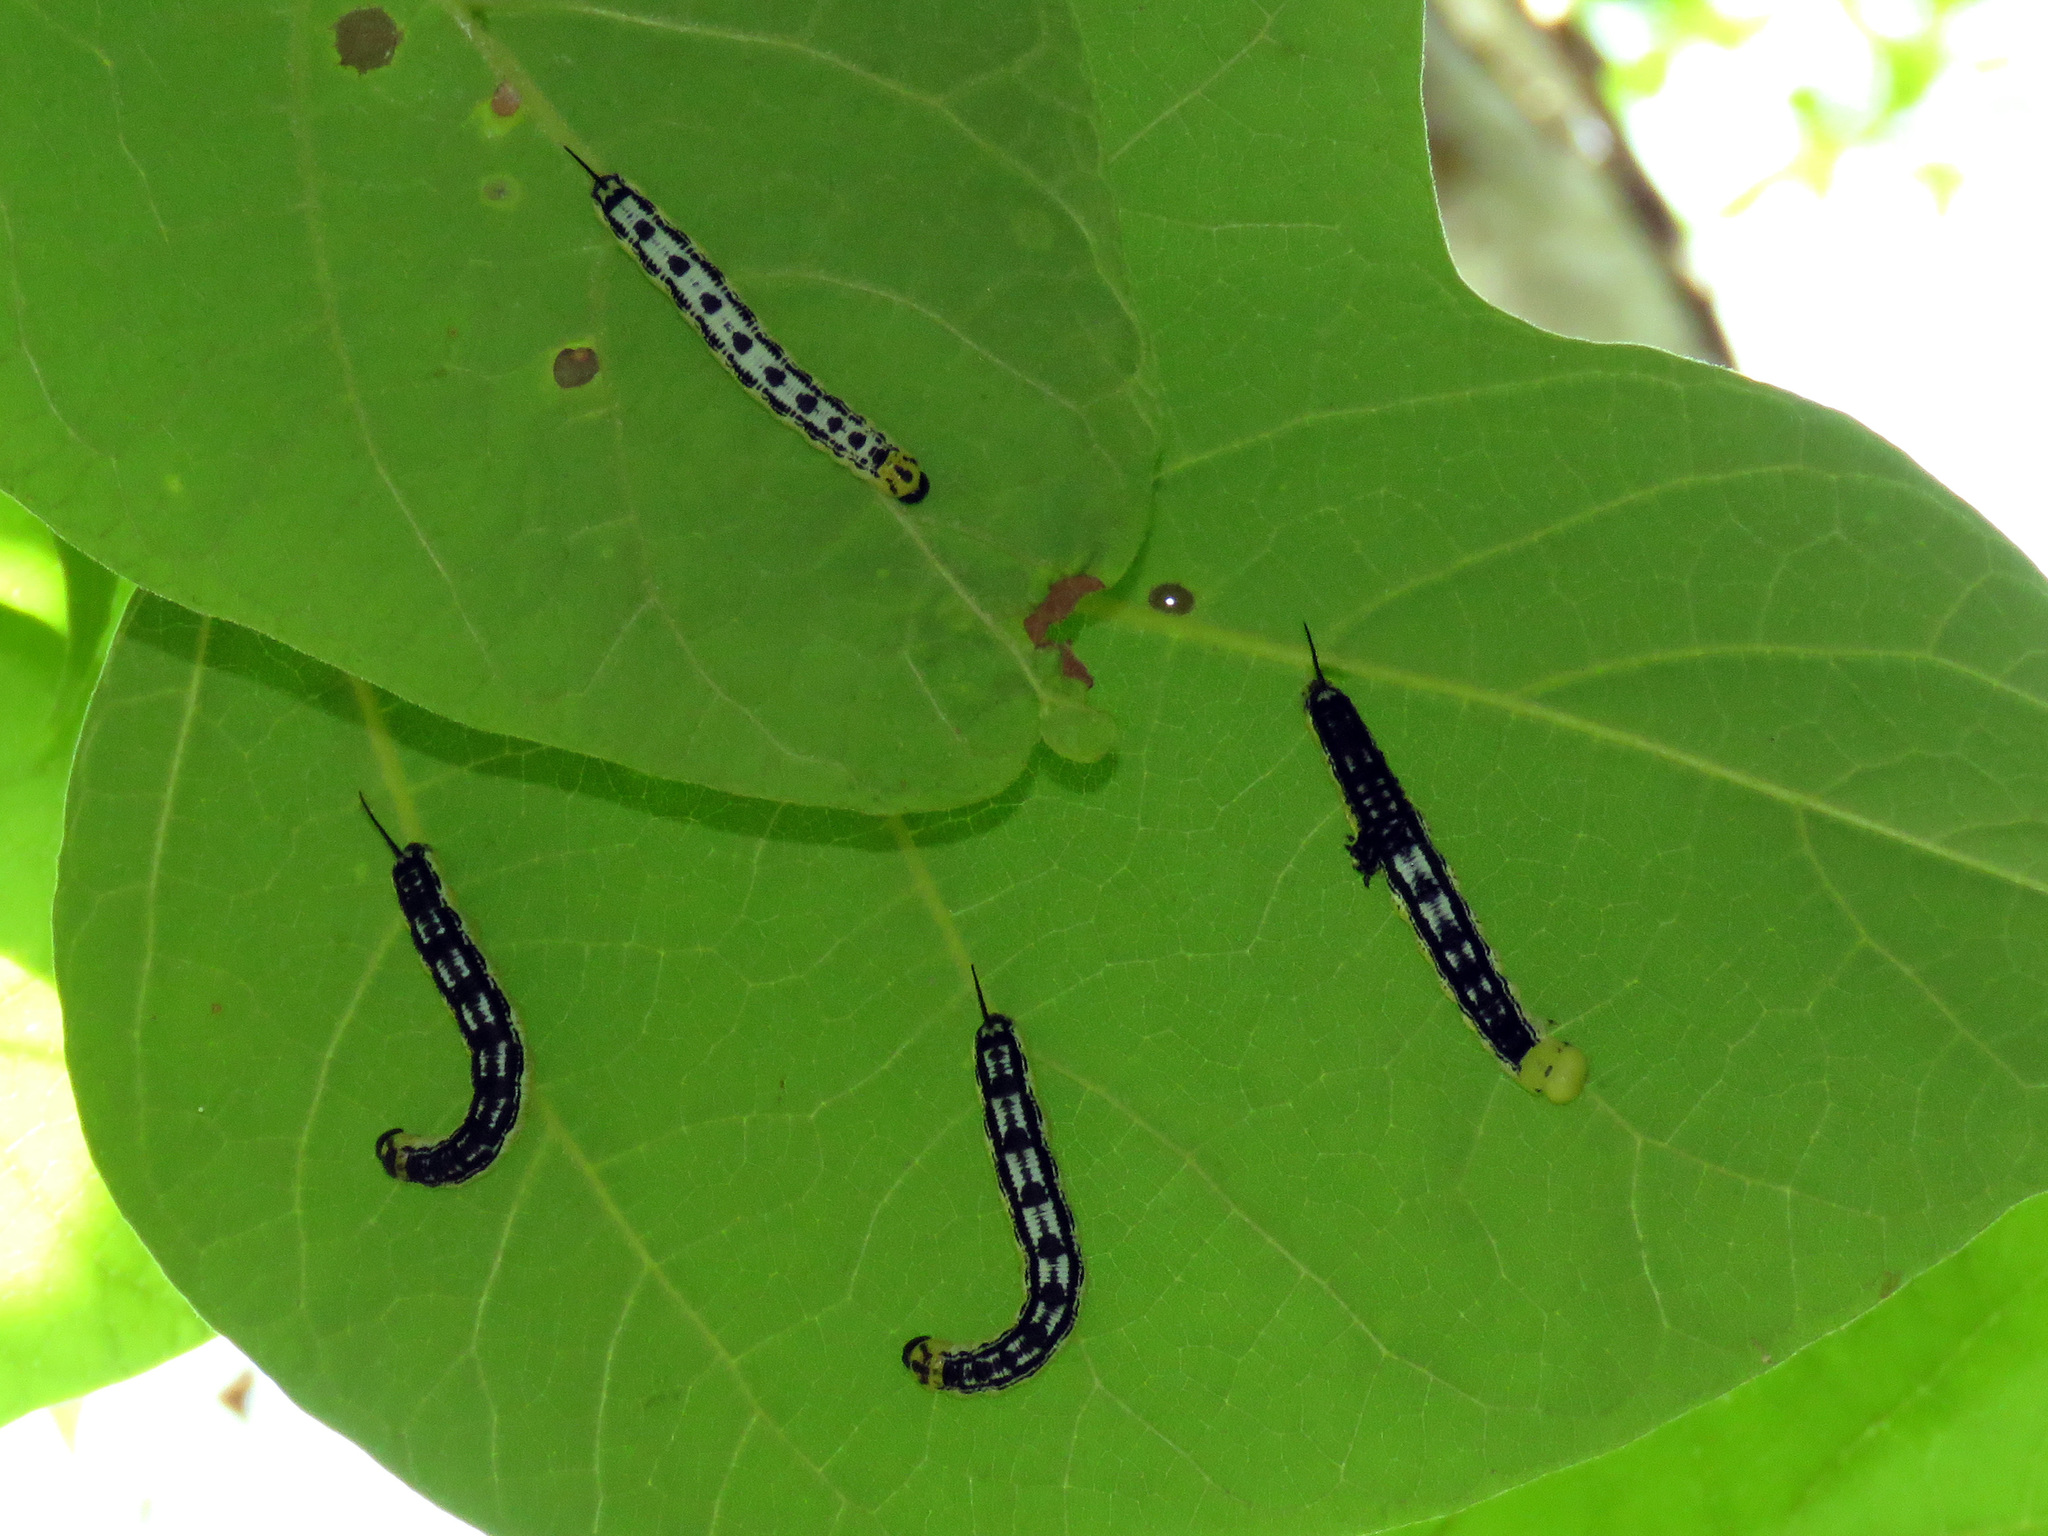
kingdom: Animalia
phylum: Arthropoda
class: Insecta
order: Lepidoptera
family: Sphingidae
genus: Ceratomia
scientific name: Ceratomia catalpae
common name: Catalpa hornworm
